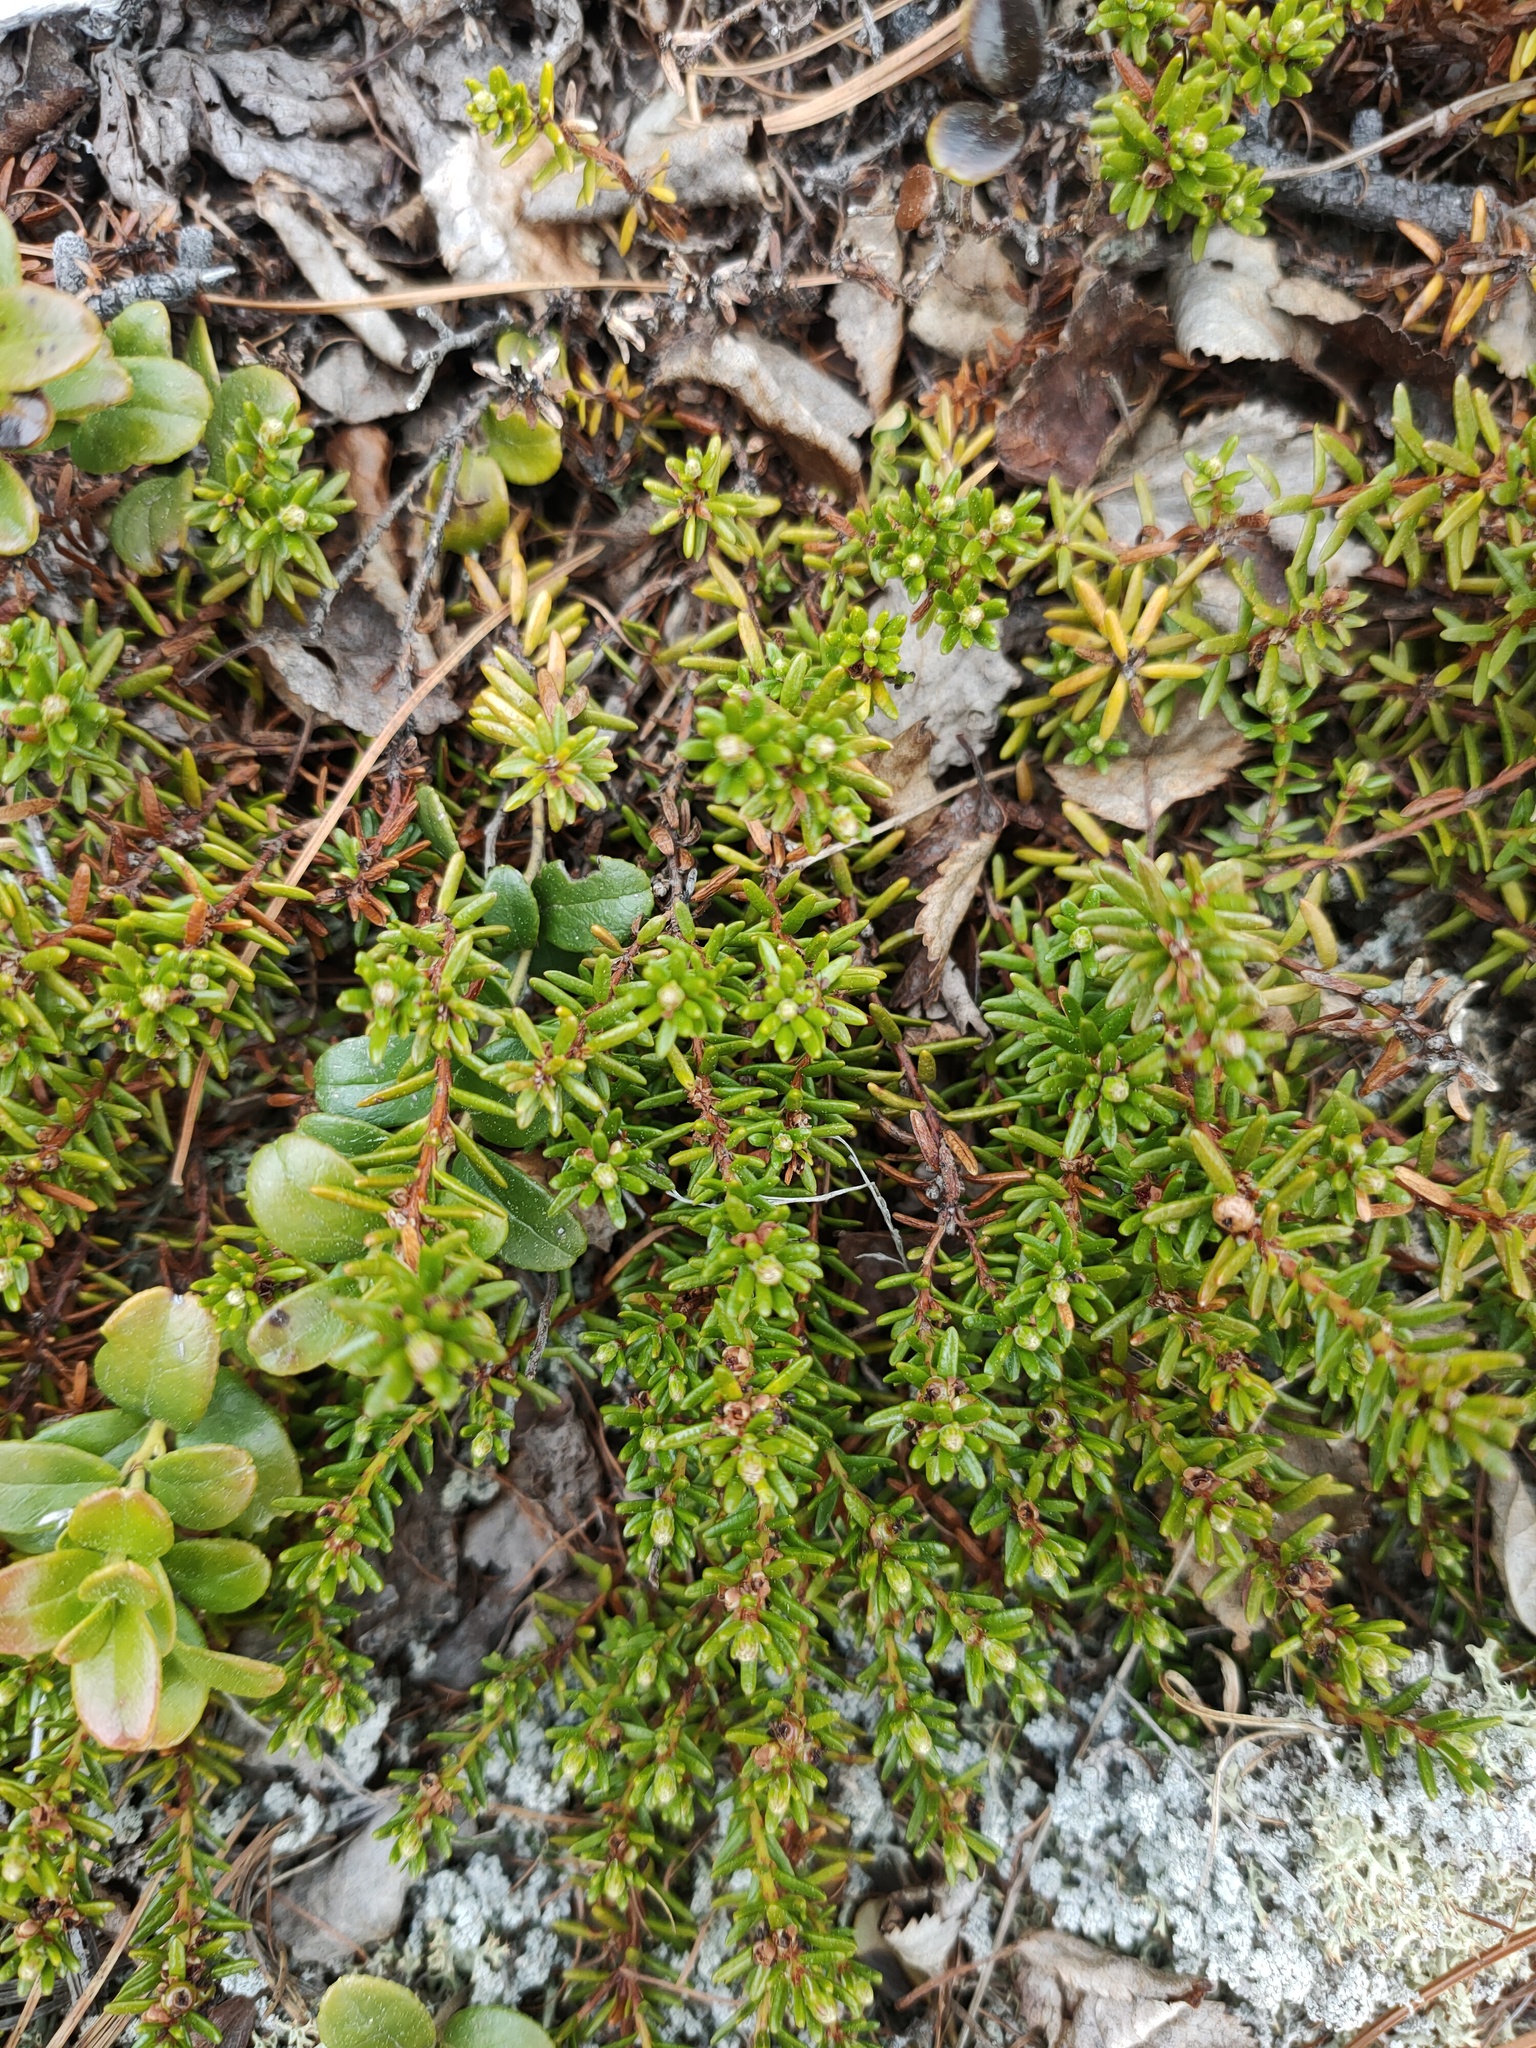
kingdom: Plantae
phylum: Tracheophyta
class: Magnoliopsida
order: Ericales
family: Ericaceae
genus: Empetrum
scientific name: Empetrum nigrum
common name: Black crowberry
